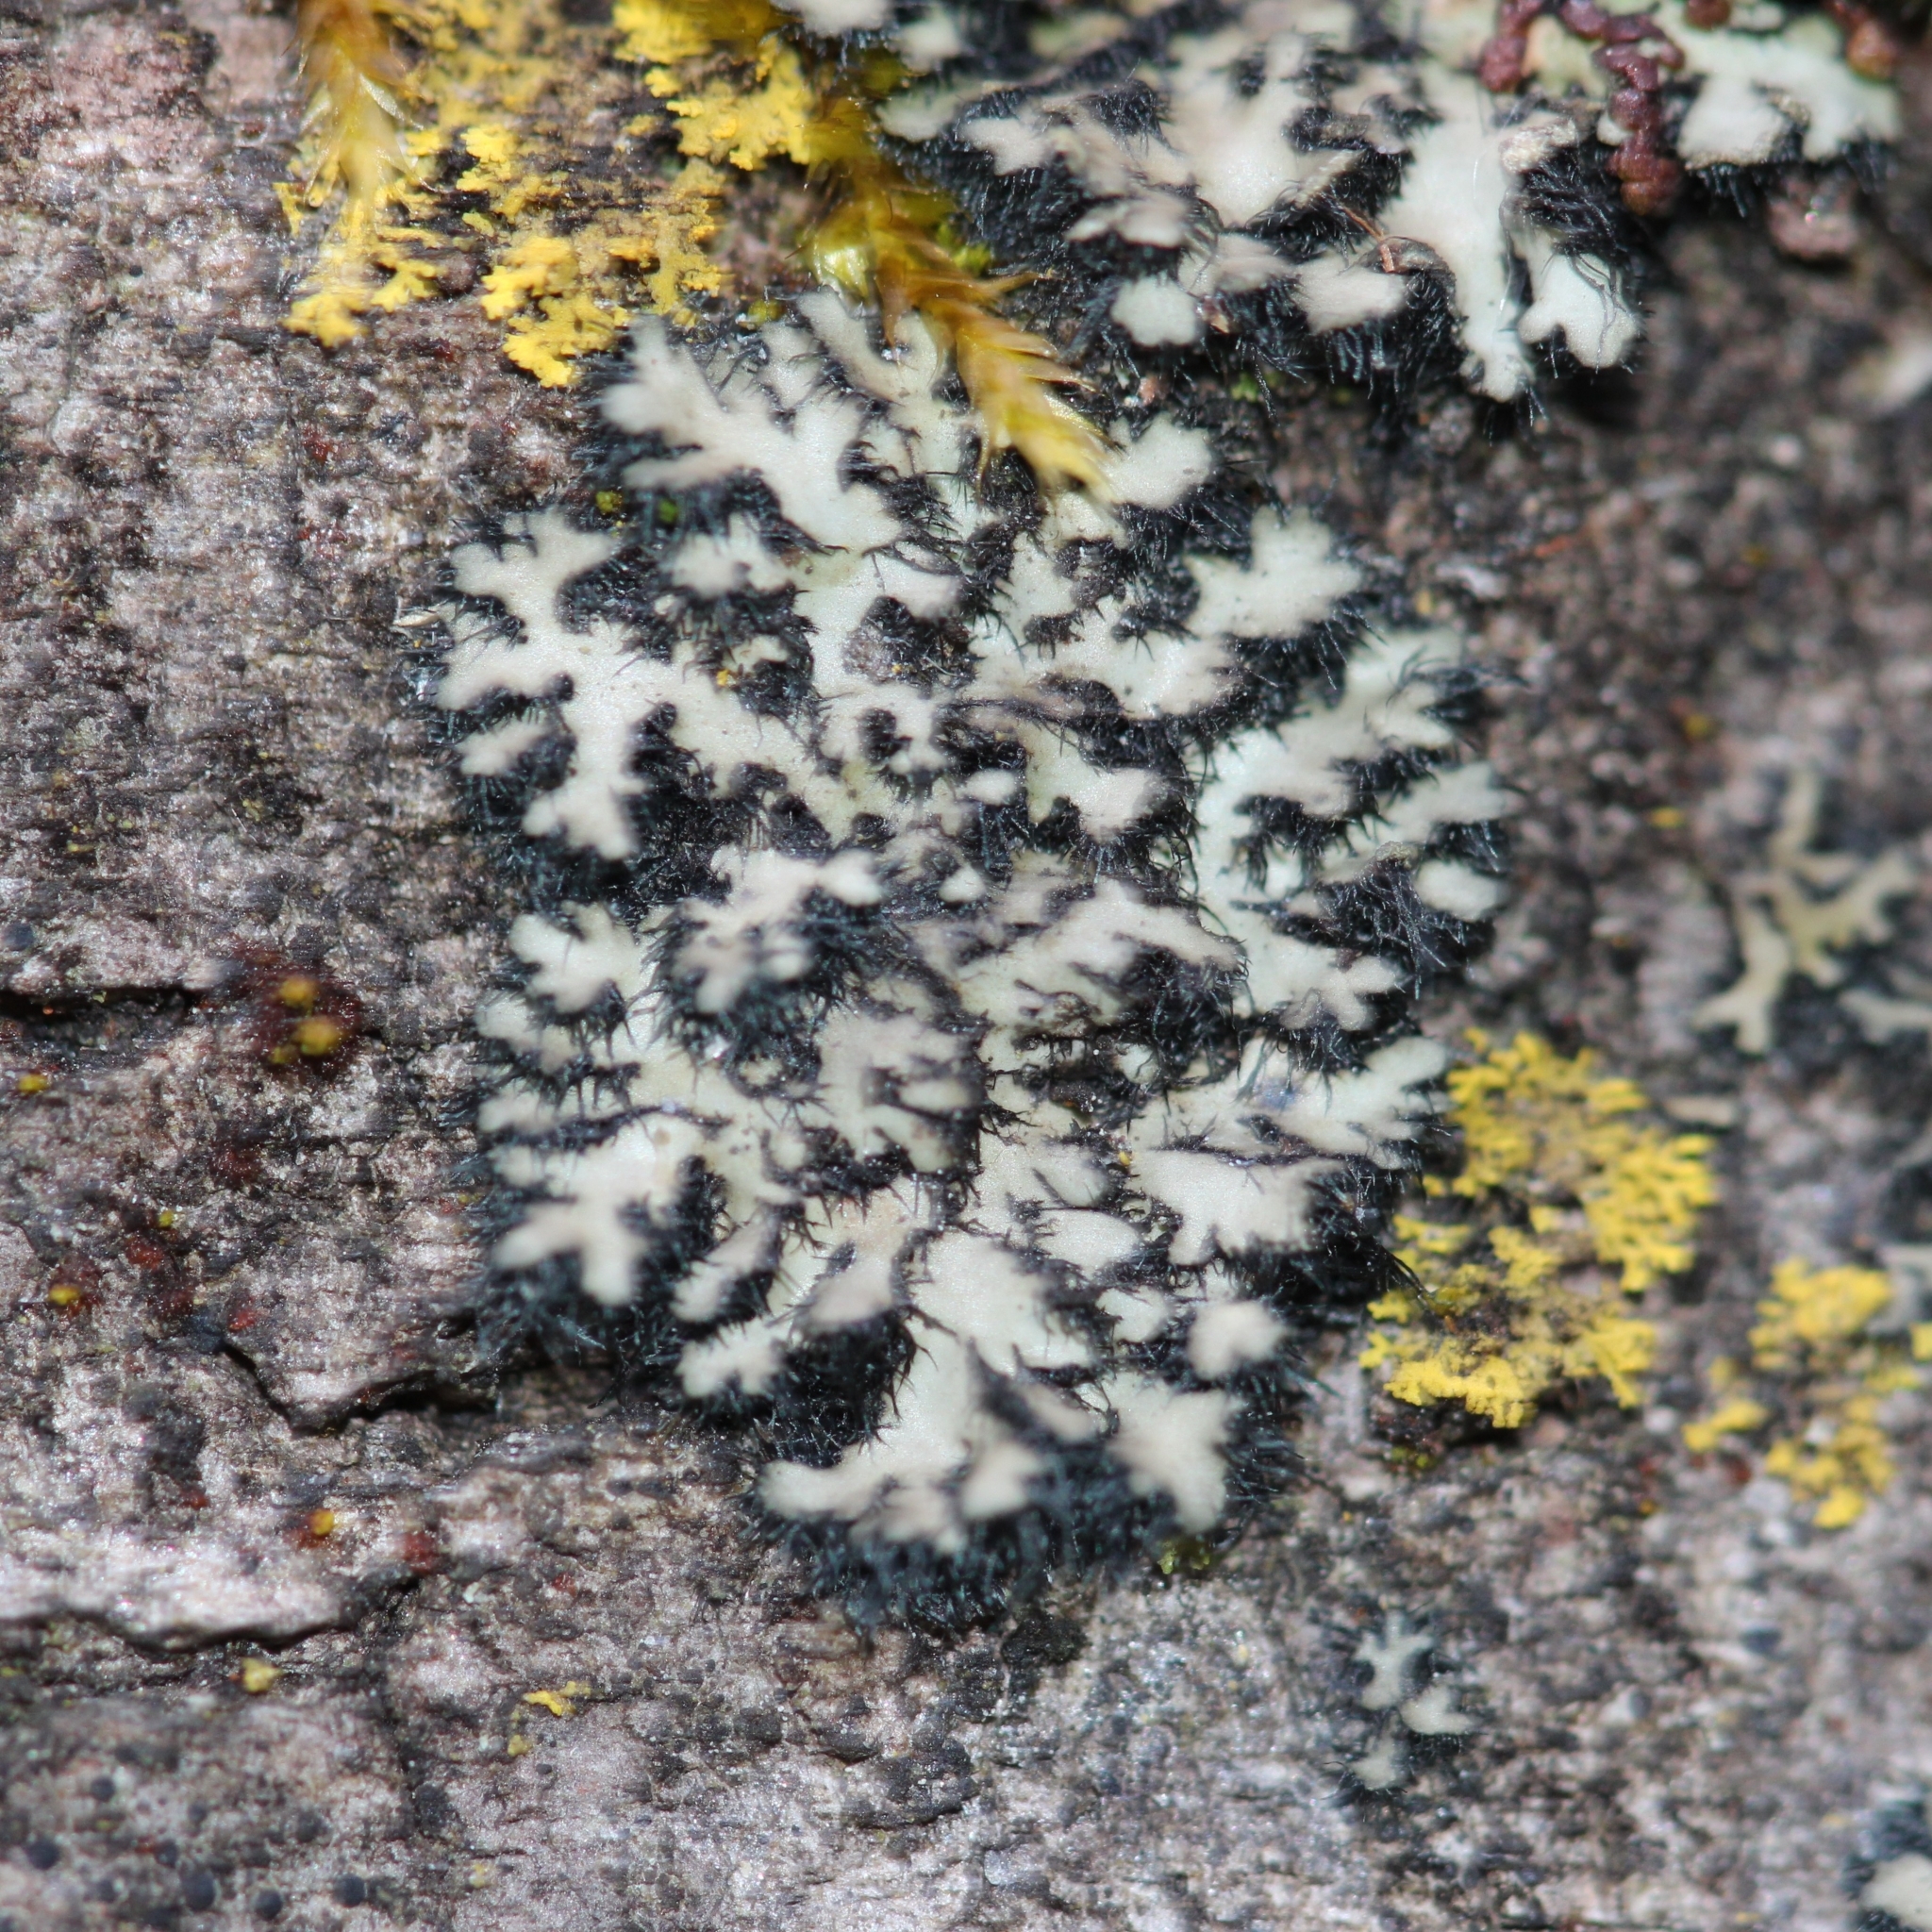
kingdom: Fungi
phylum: Ascomycota
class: Lecanoromycetes
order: Caliciales
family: Physciaceae
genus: Phaeophyscia
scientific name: Phaeophyscia rubropulchra
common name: Orange-cored shadow lichen
